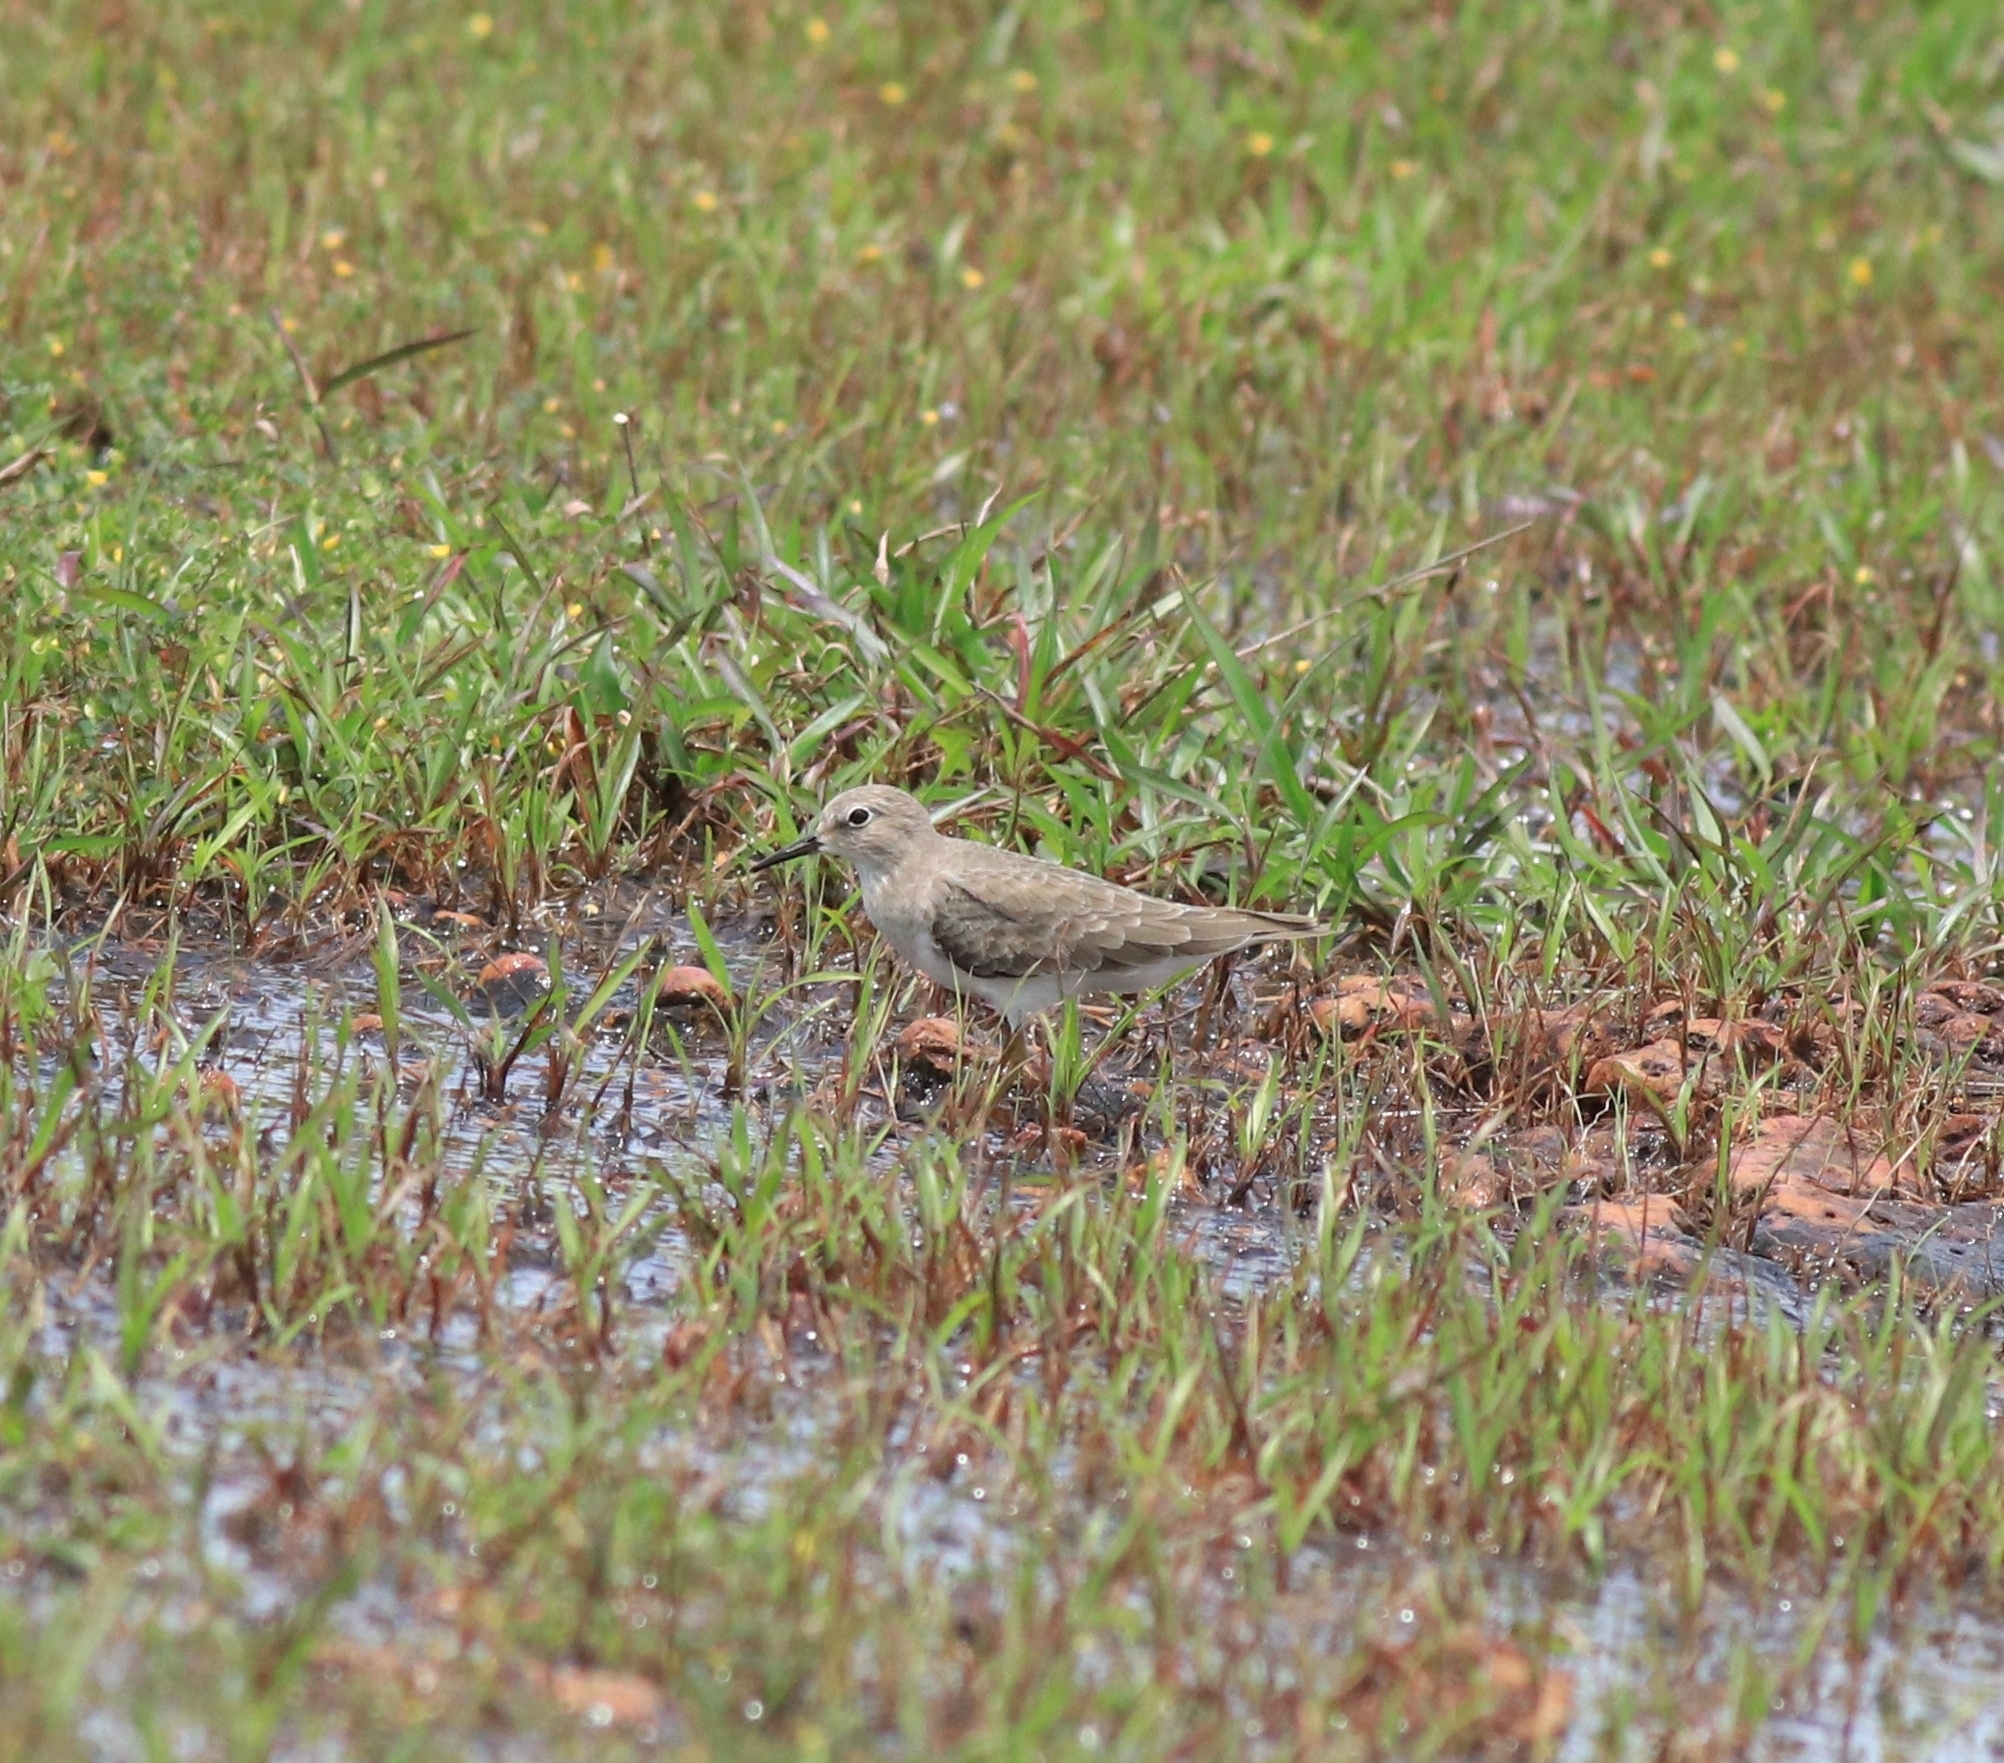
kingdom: Animalia
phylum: Chordata
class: Aves
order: Charadriiformes
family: Scolopacidae
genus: Calidris
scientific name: Calidris temminckii
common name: Temminck's stint
